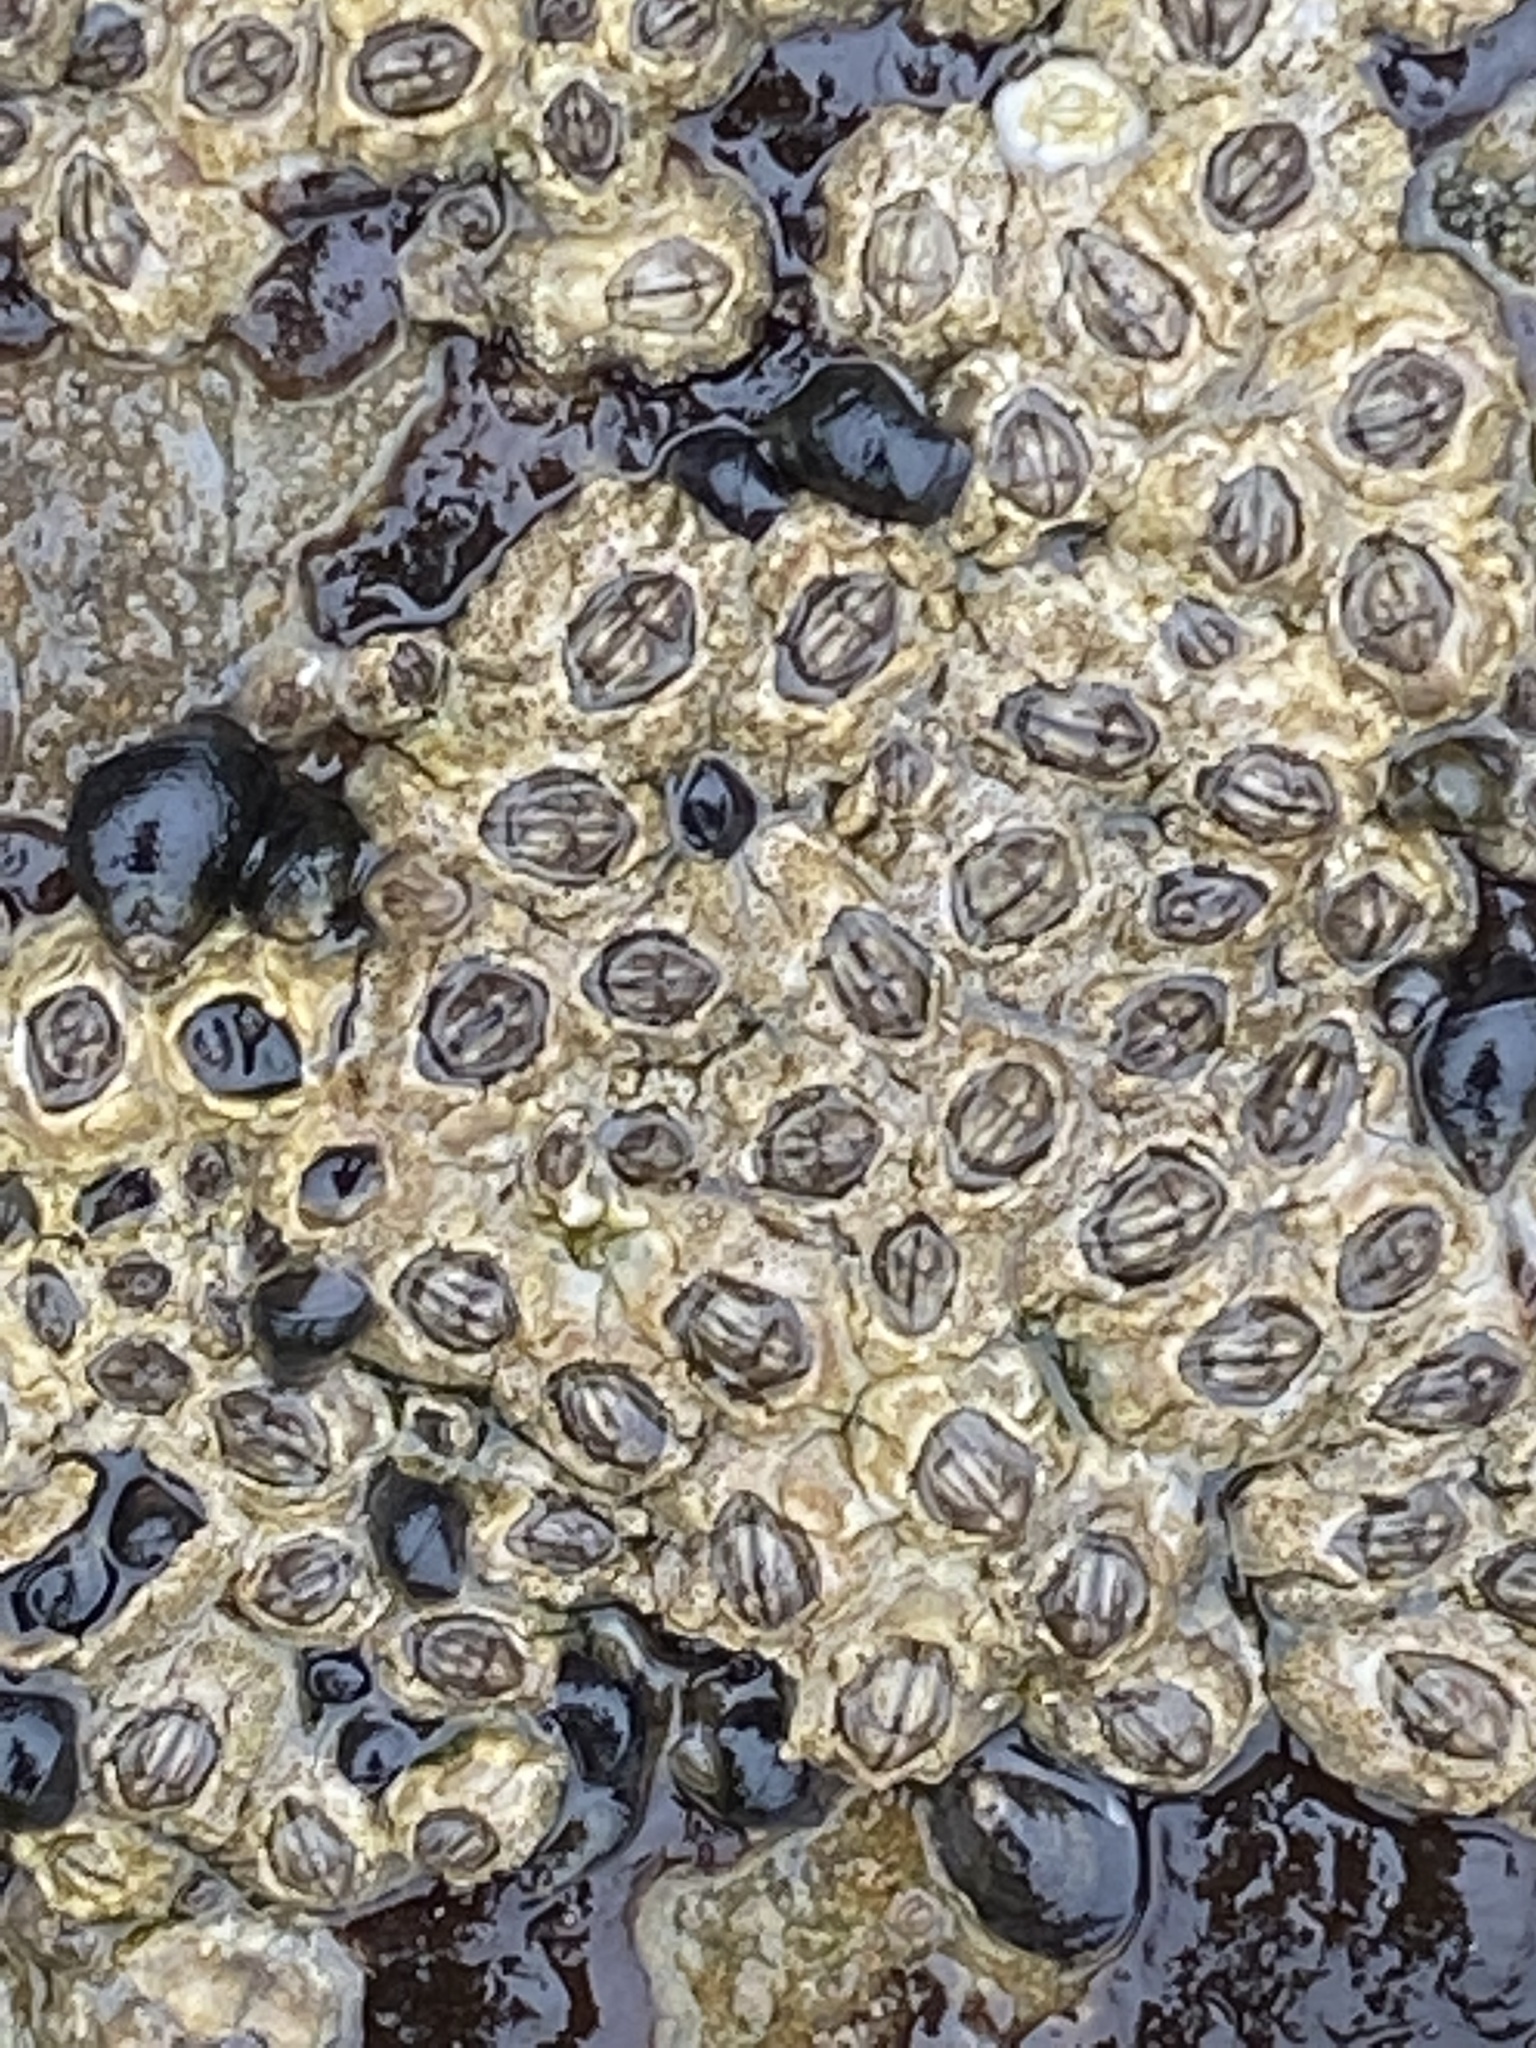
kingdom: Animalia
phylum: Arthropoda
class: Maxillopoda
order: Sessilia
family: Chthamalidae
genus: Chthamalus
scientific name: Chthamalus dalli
